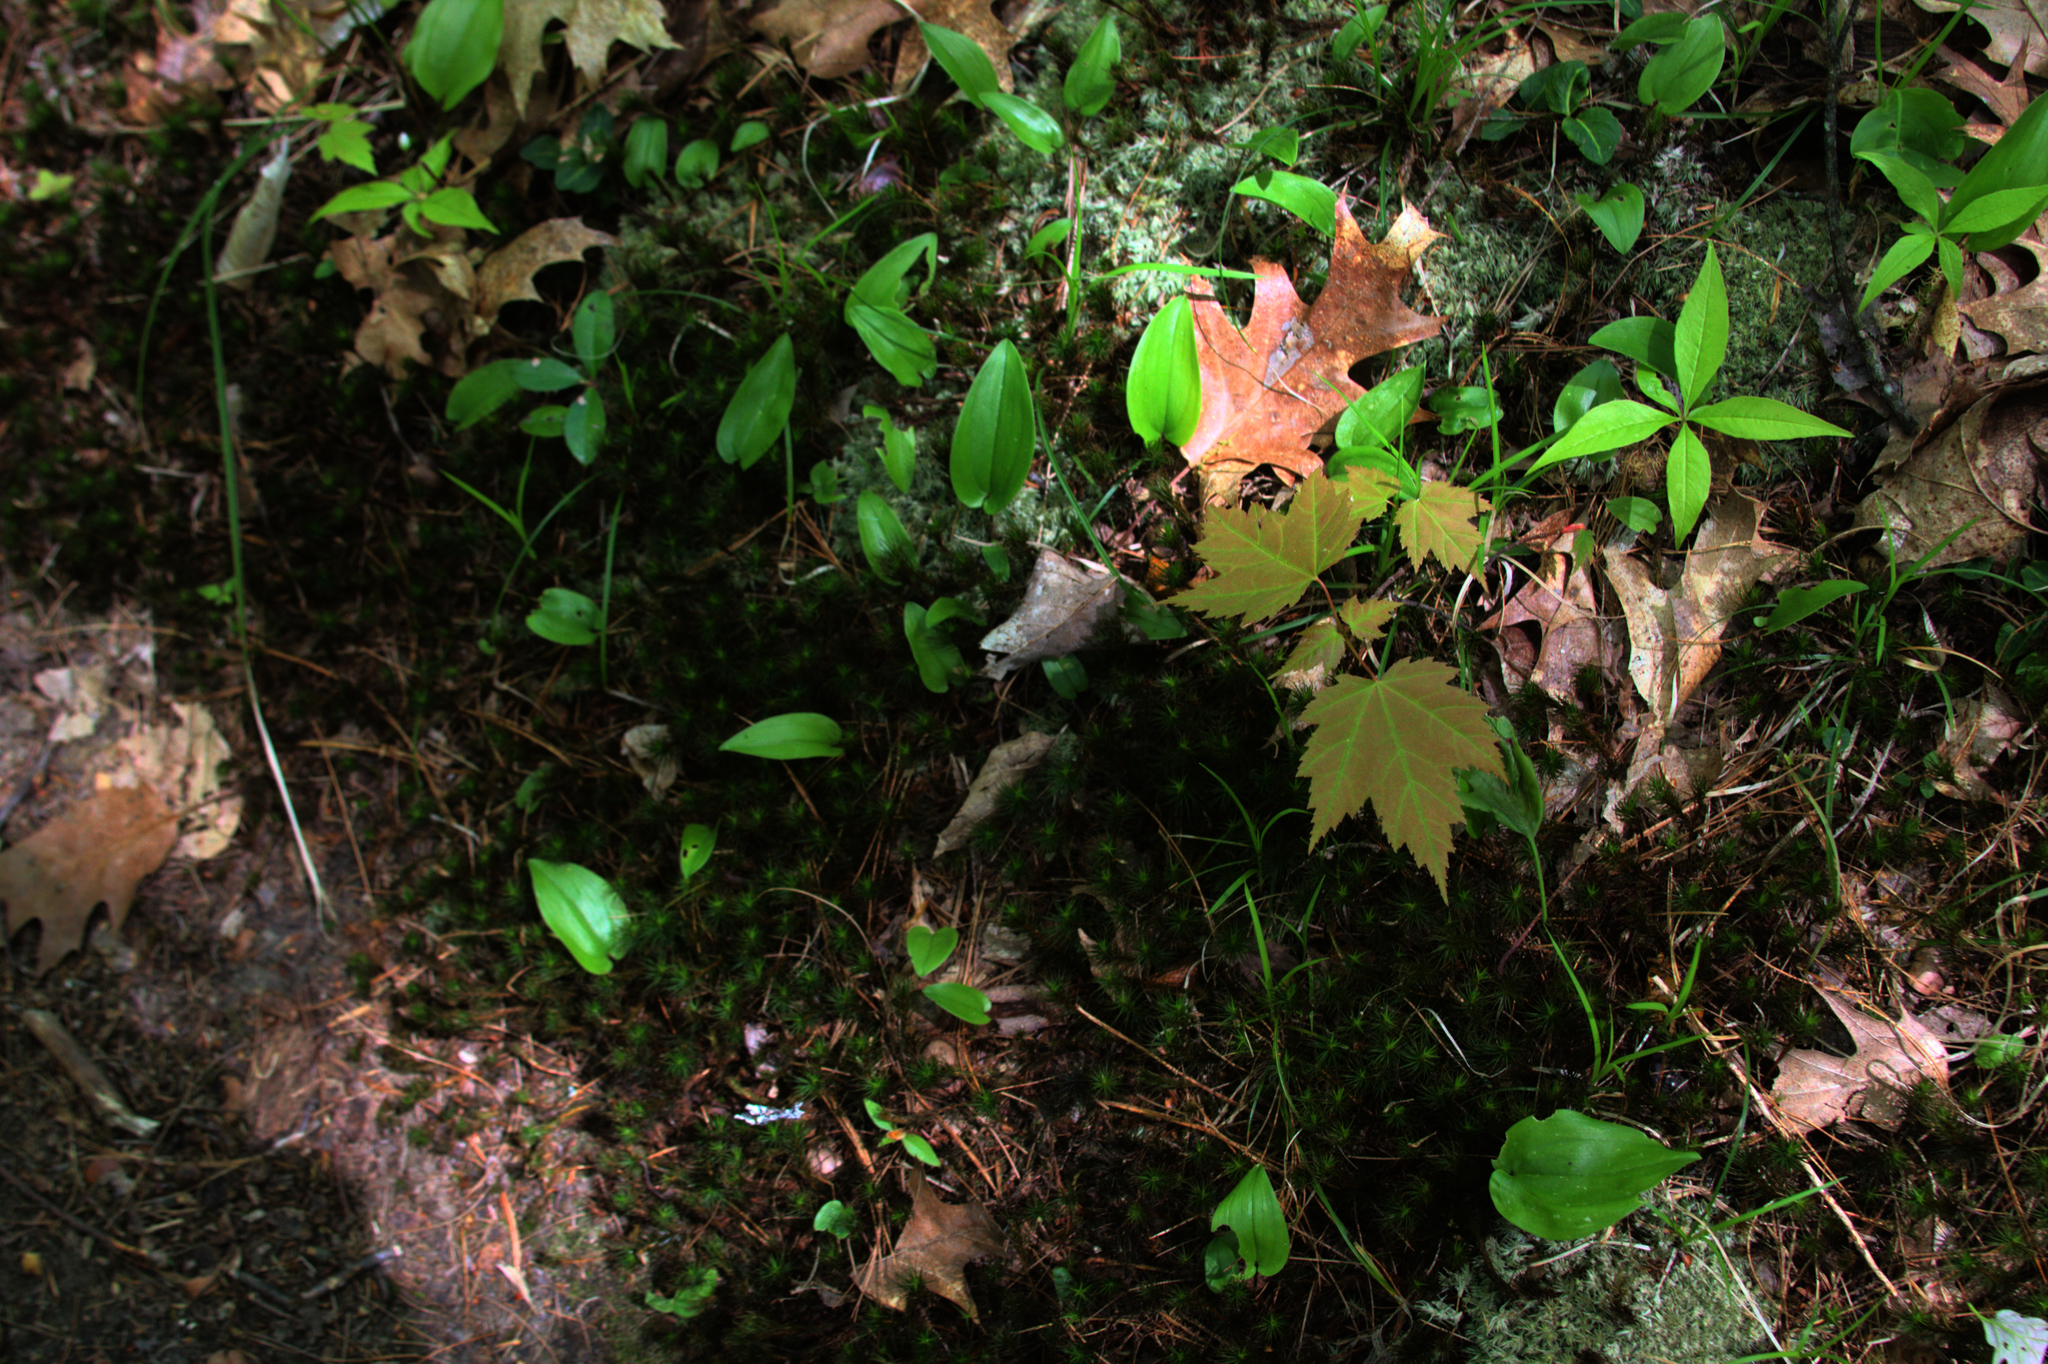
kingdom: Plantae
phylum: Tracheophyta
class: Magnoliopsida
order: Sapindales
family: Sapindaceae
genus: Acer
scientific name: Acer rubrum
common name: Red maple
